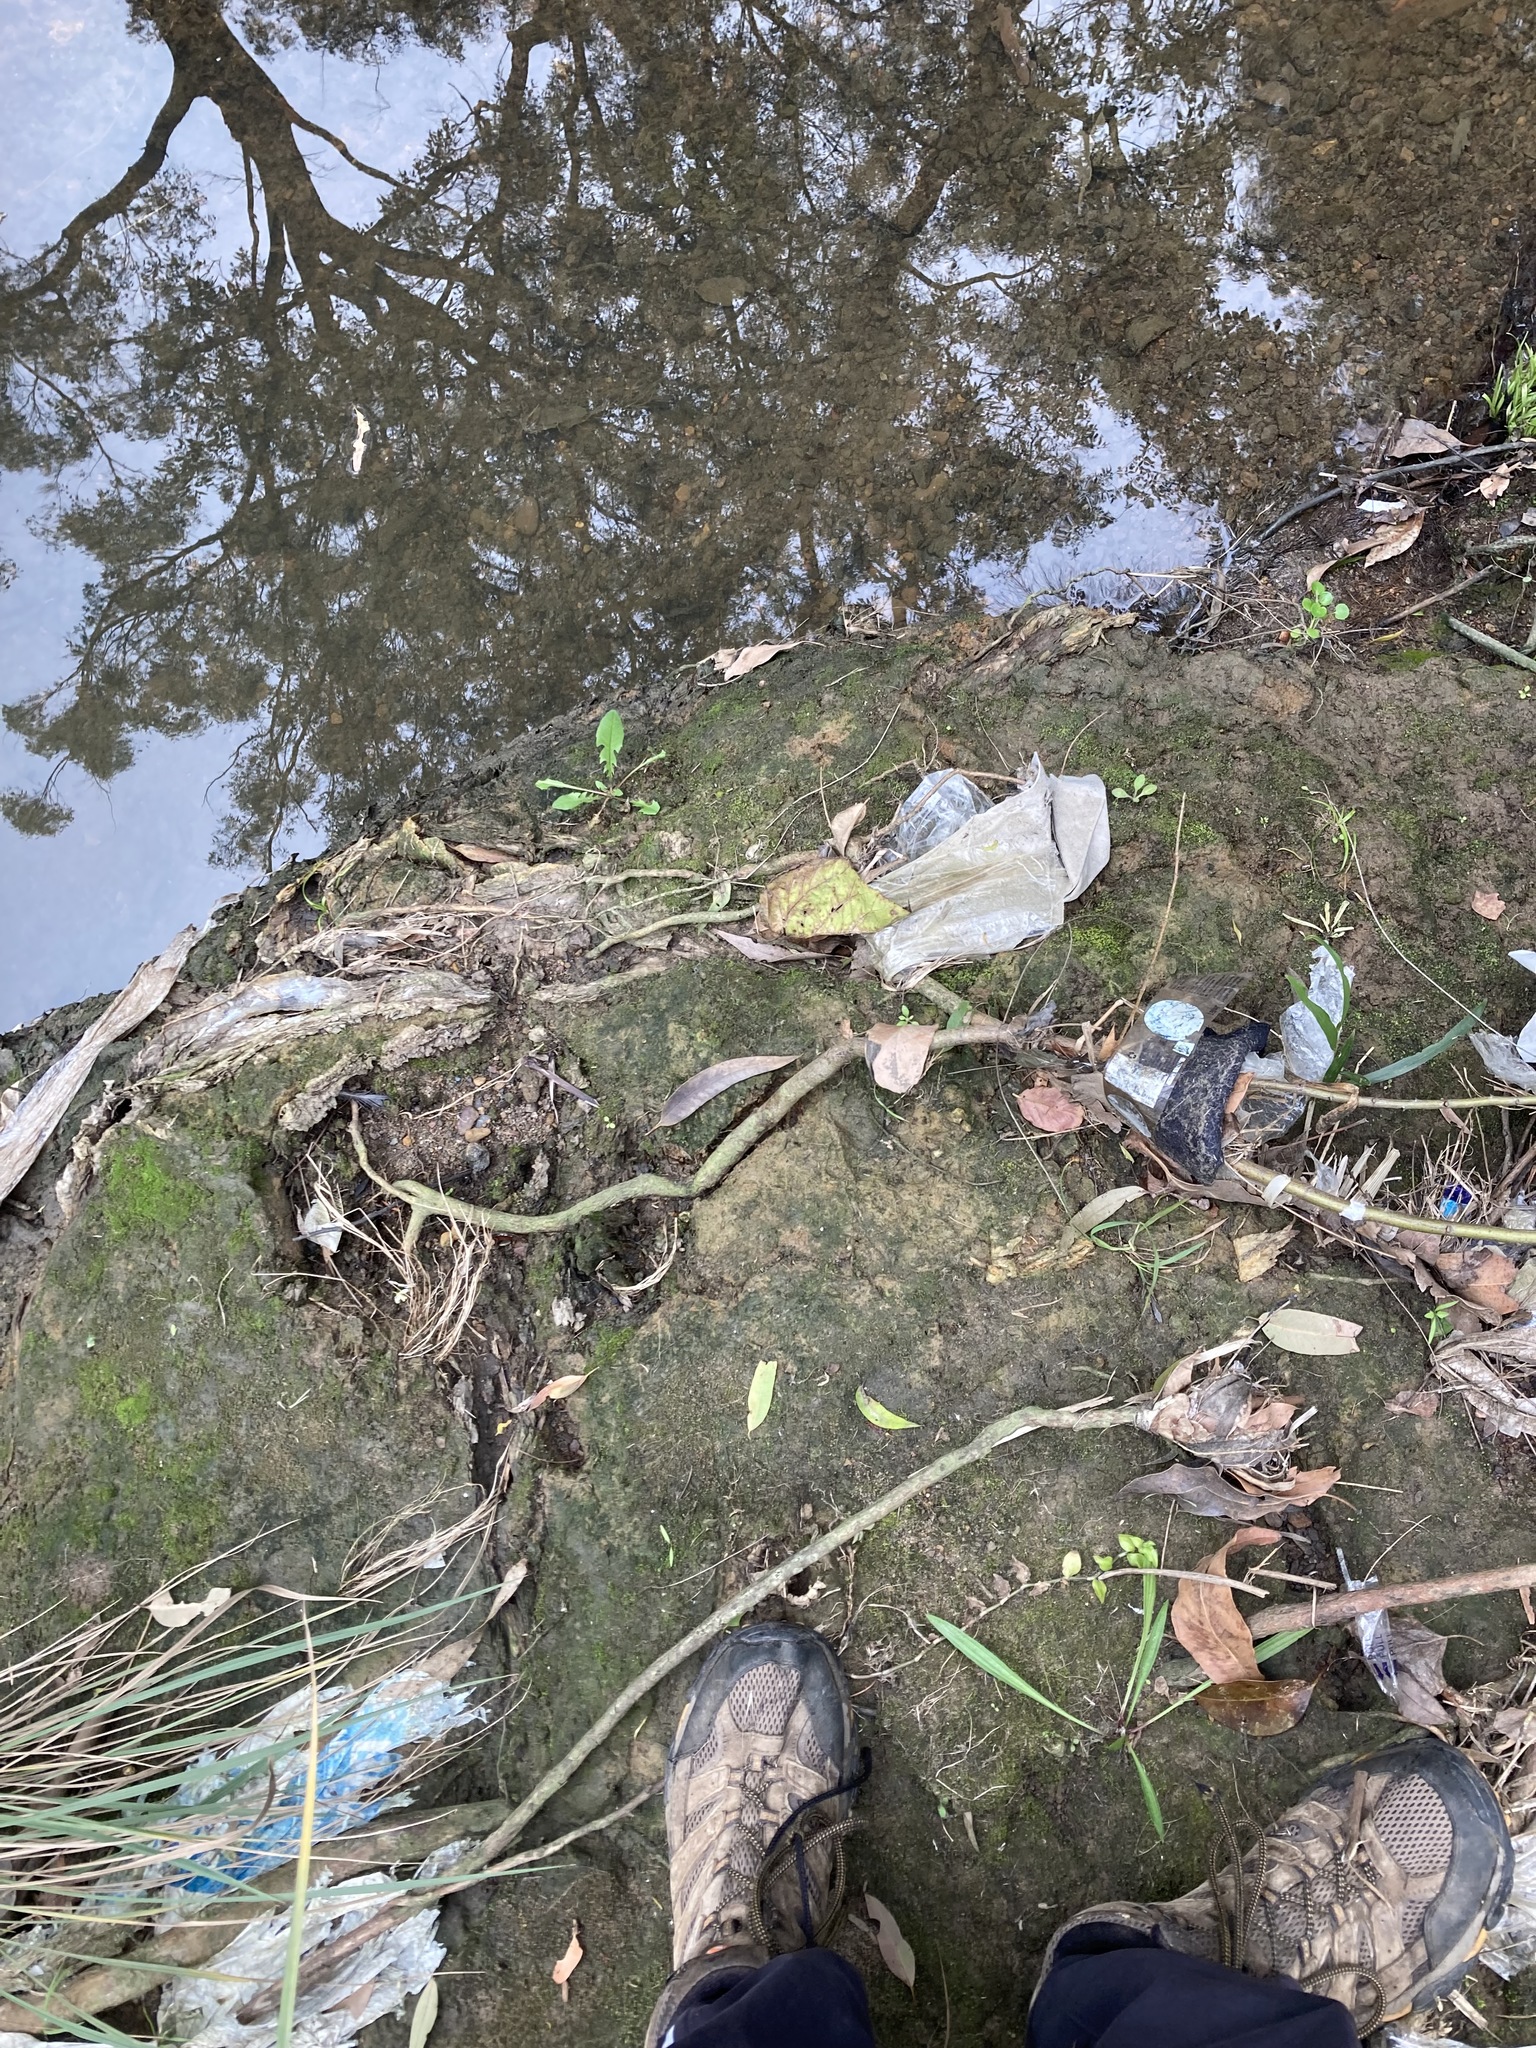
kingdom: Plantae
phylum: Tracheophyta
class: Magnoliopsida
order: Fabales
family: Fabaceae
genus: Acacia
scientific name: Acacia longifolia
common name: Sydney golden wattle
